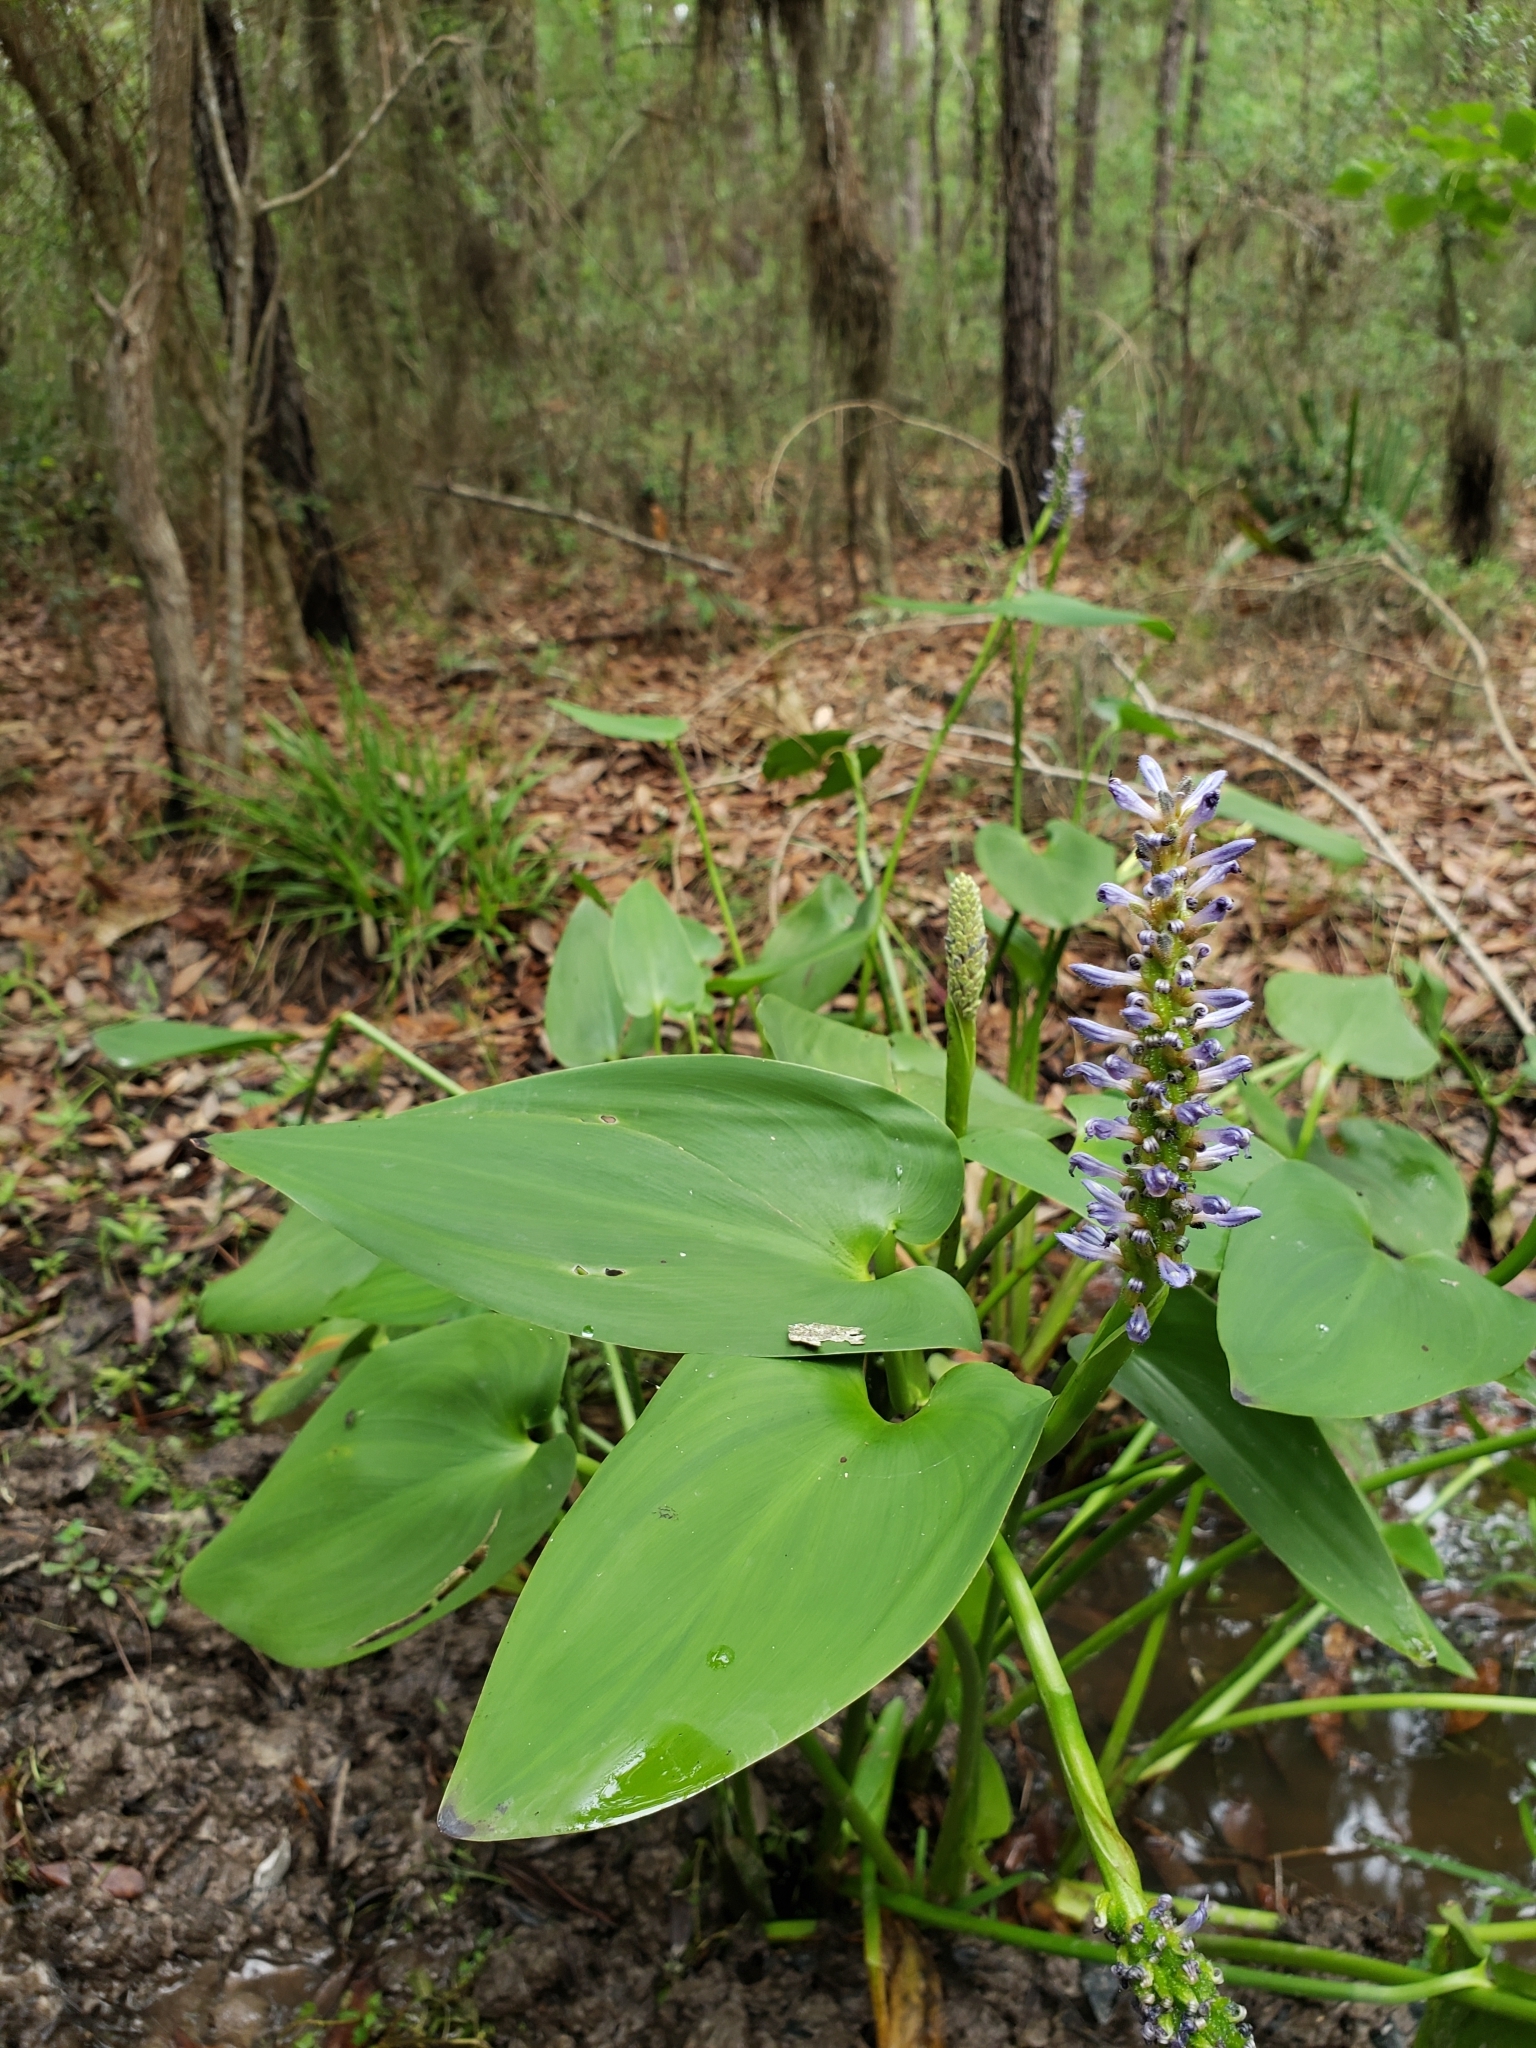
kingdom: Plantae
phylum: Tracheophyta
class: Liliopsida
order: Commelinales
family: Pontederiaceae
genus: Pontederia
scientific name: Pontederia cordata
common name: Pickerelweed
